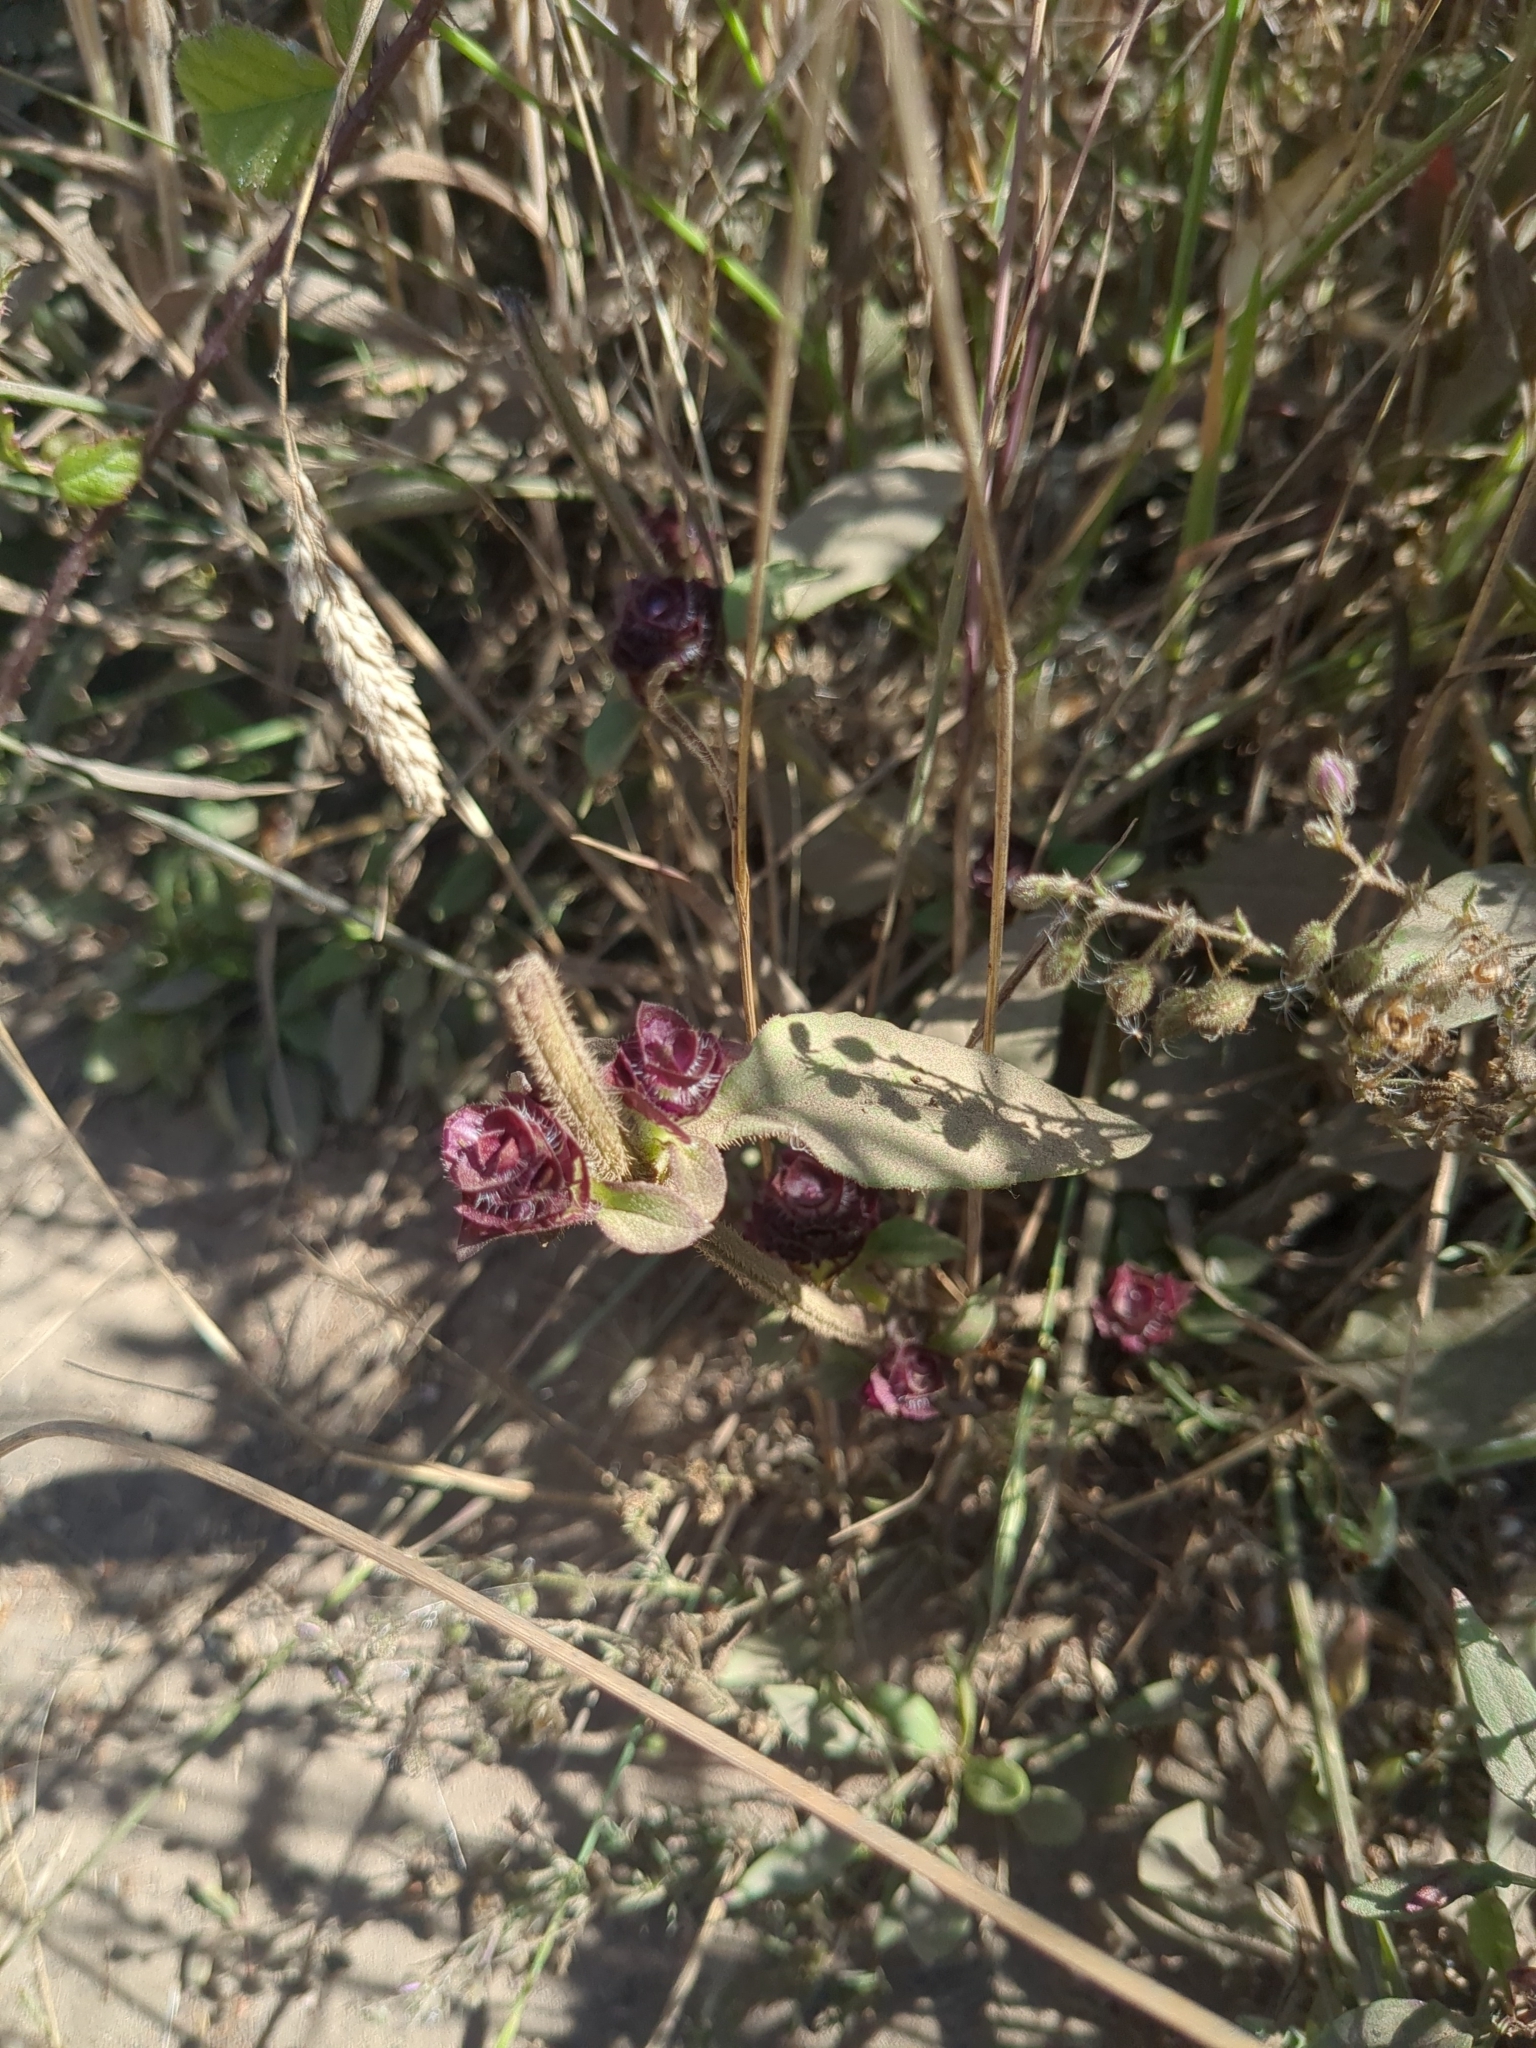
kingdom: Plantae
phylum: Tracheophyta
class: Magnoliopsida
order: Lamiales
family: Lamiaceae
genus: Prunella
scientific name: Prunella vulgaris
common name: Heal-all
